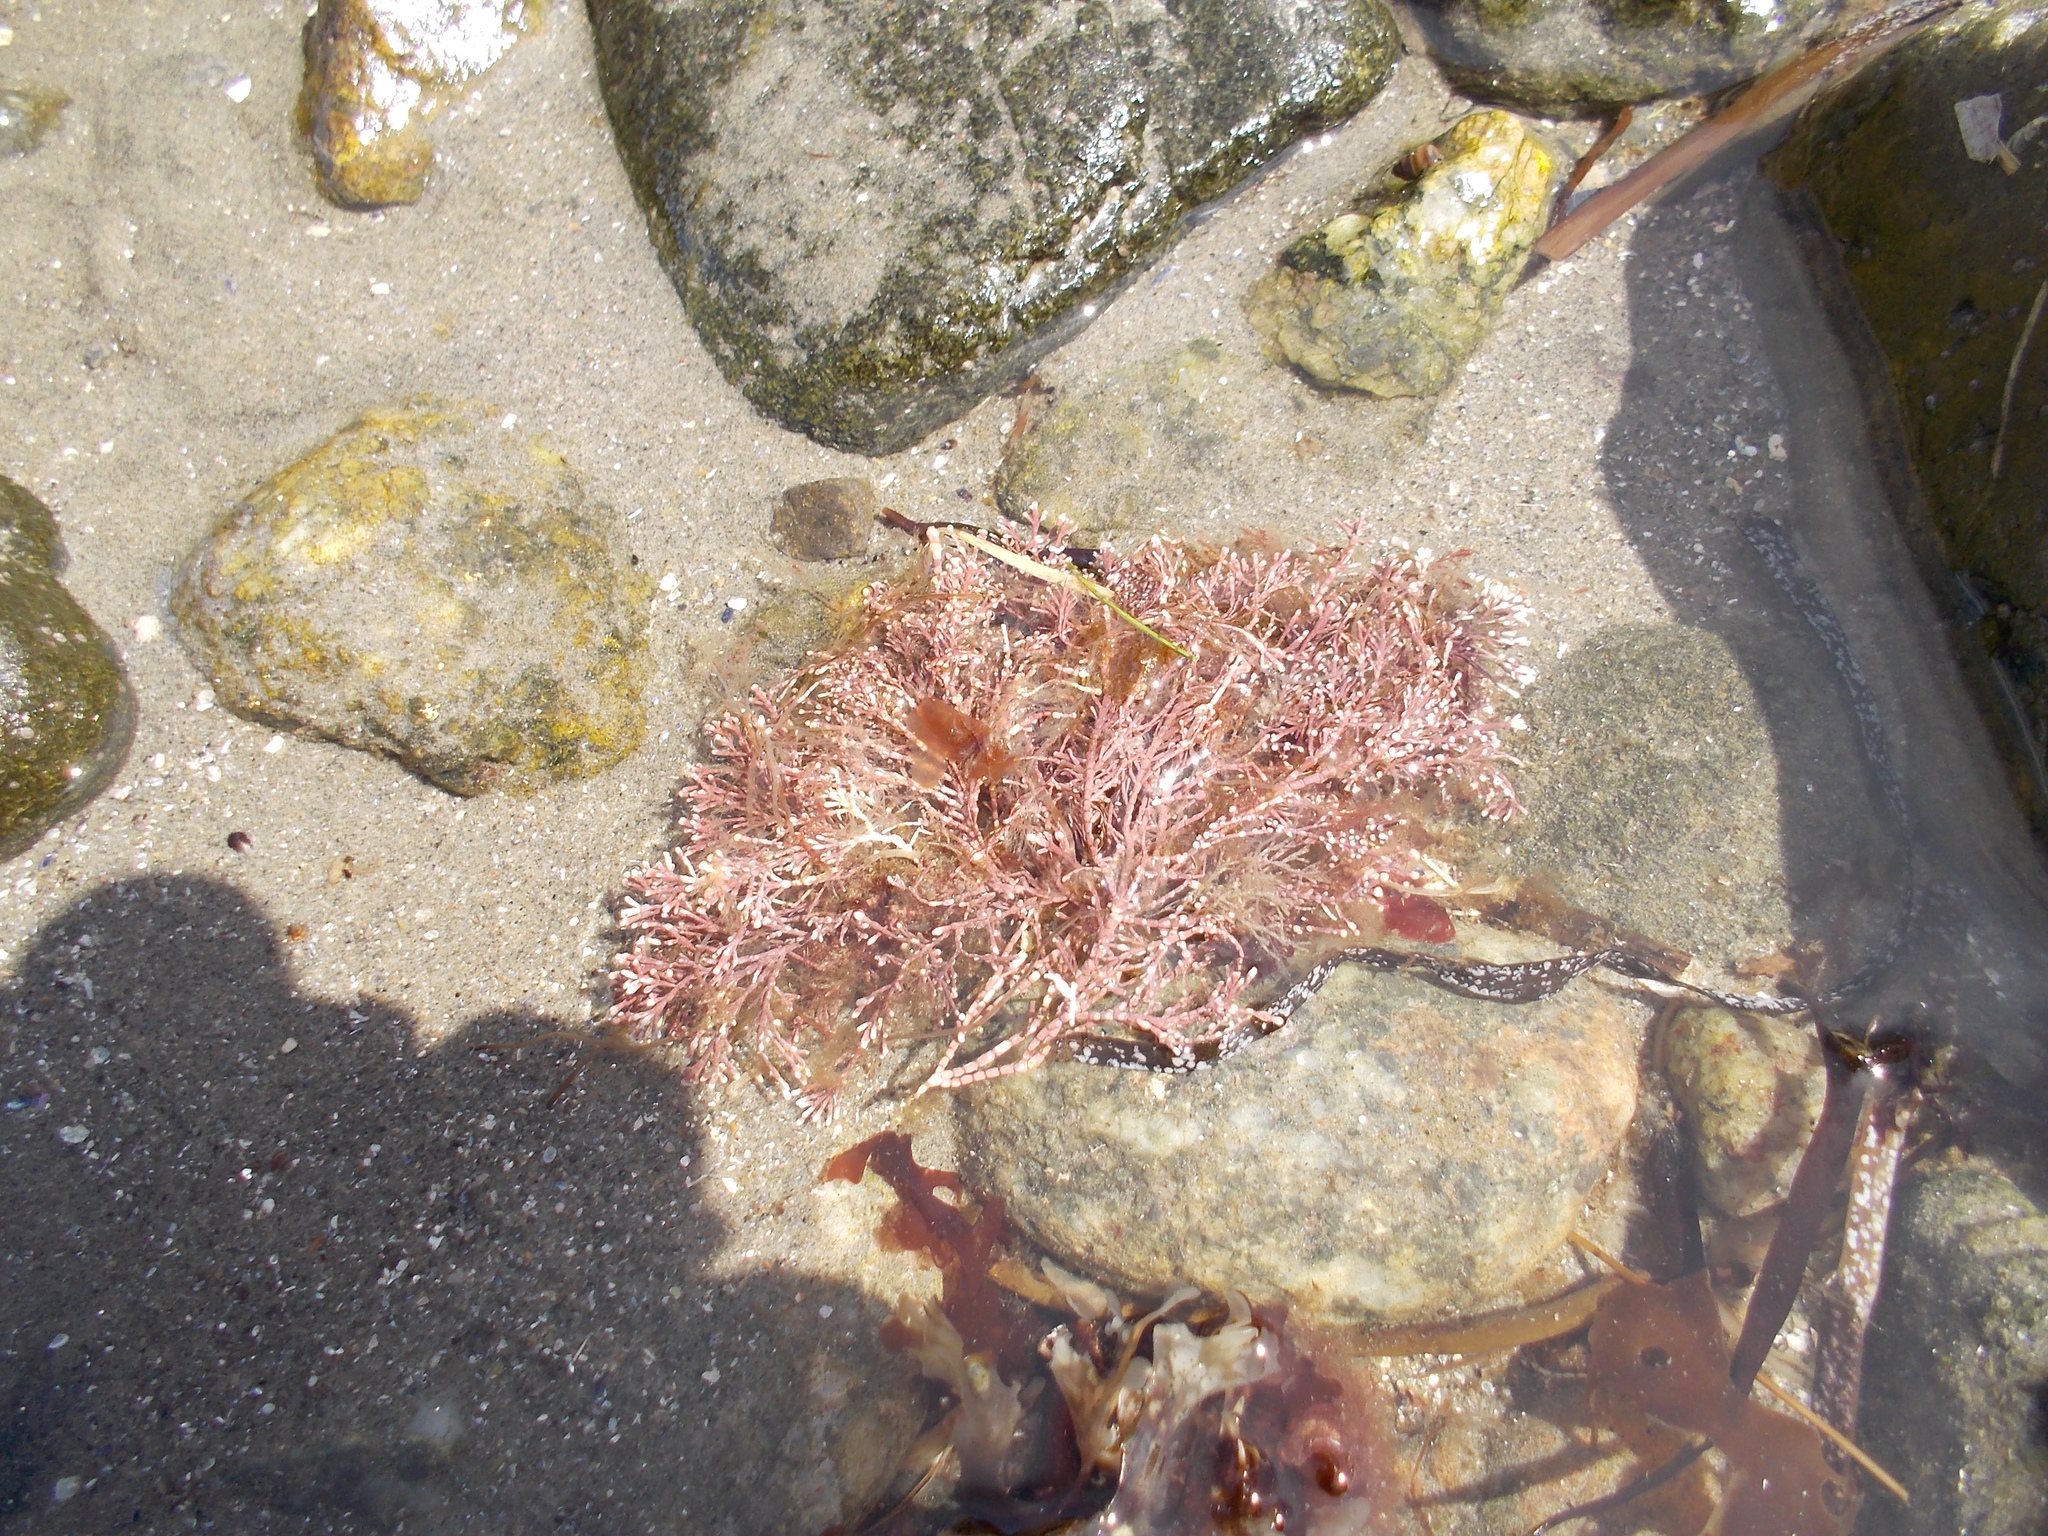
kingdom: Plantae
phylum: Rhodophyta
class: Florideophyceae
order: Corallinales
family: Corallinaceae
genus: Corallina
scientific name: Corallina officinalis
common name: Coral weed
